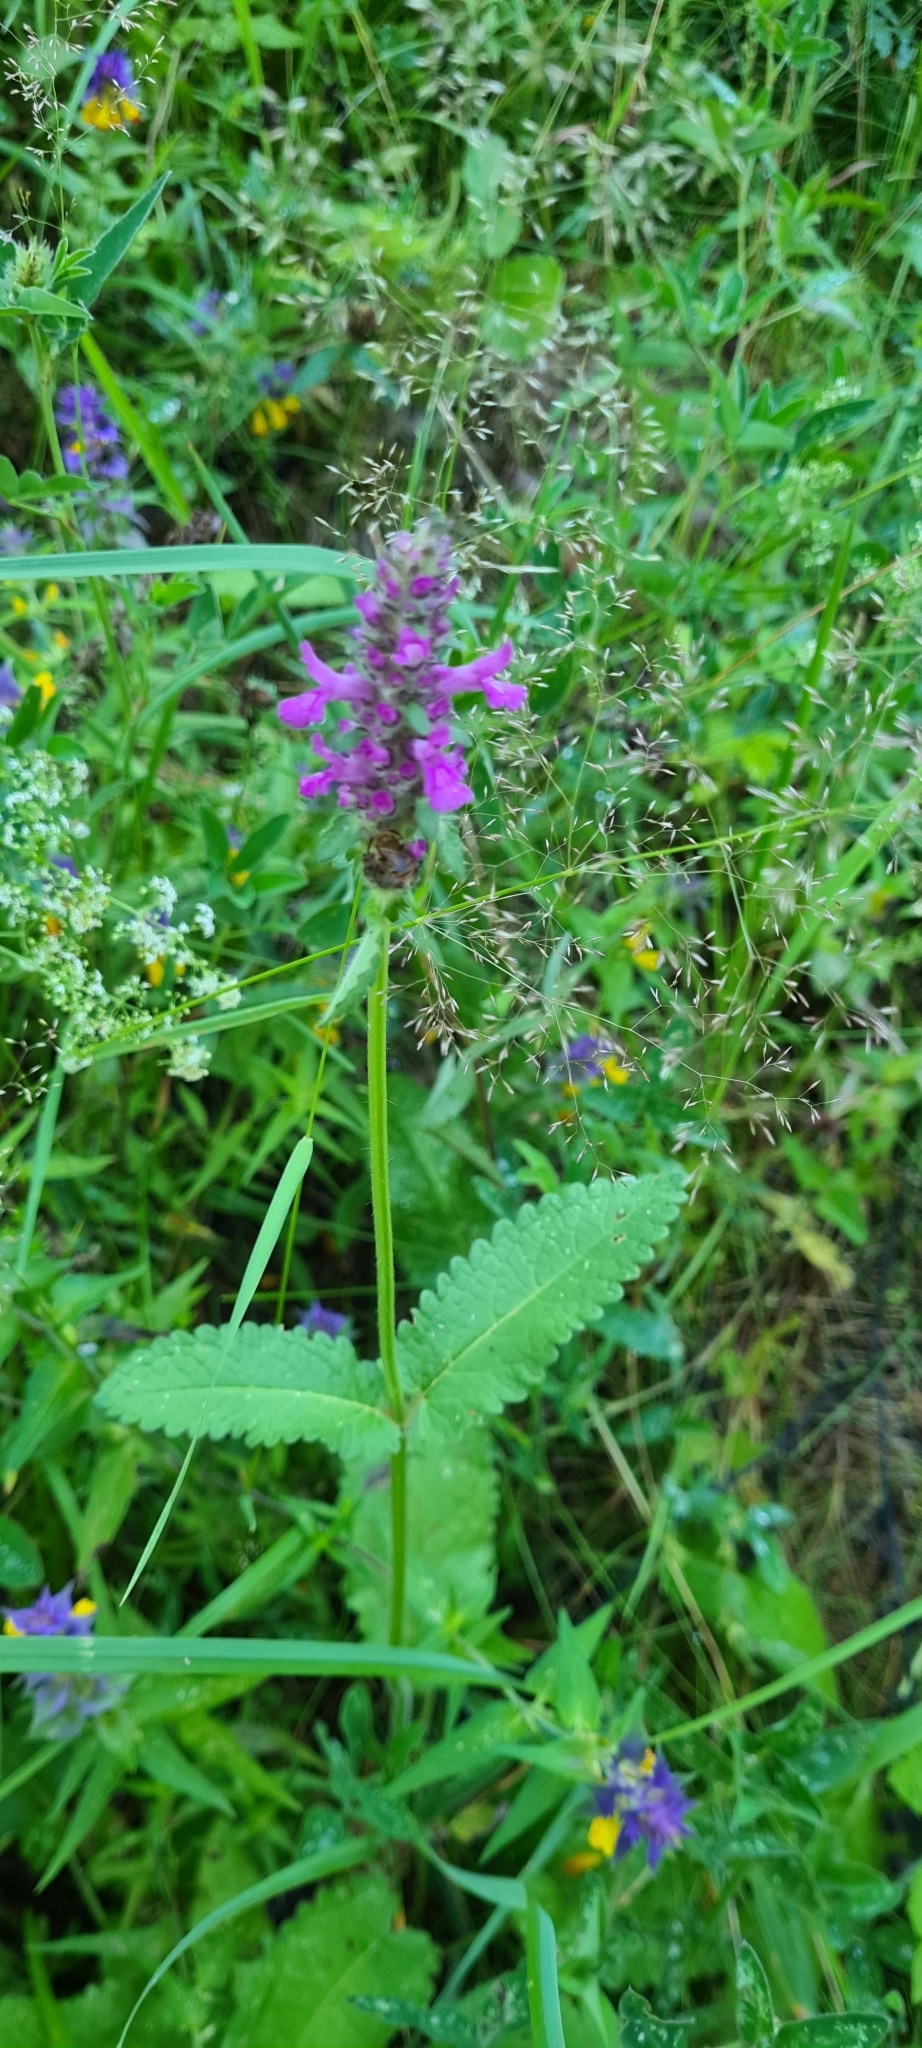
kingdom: Plantae
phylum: Tracheophyta
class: Magnoliopsida
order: Lamiales
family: Lamiaceae
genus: Betonica
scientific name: Betonica officinalis
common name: Bishop's-wort
